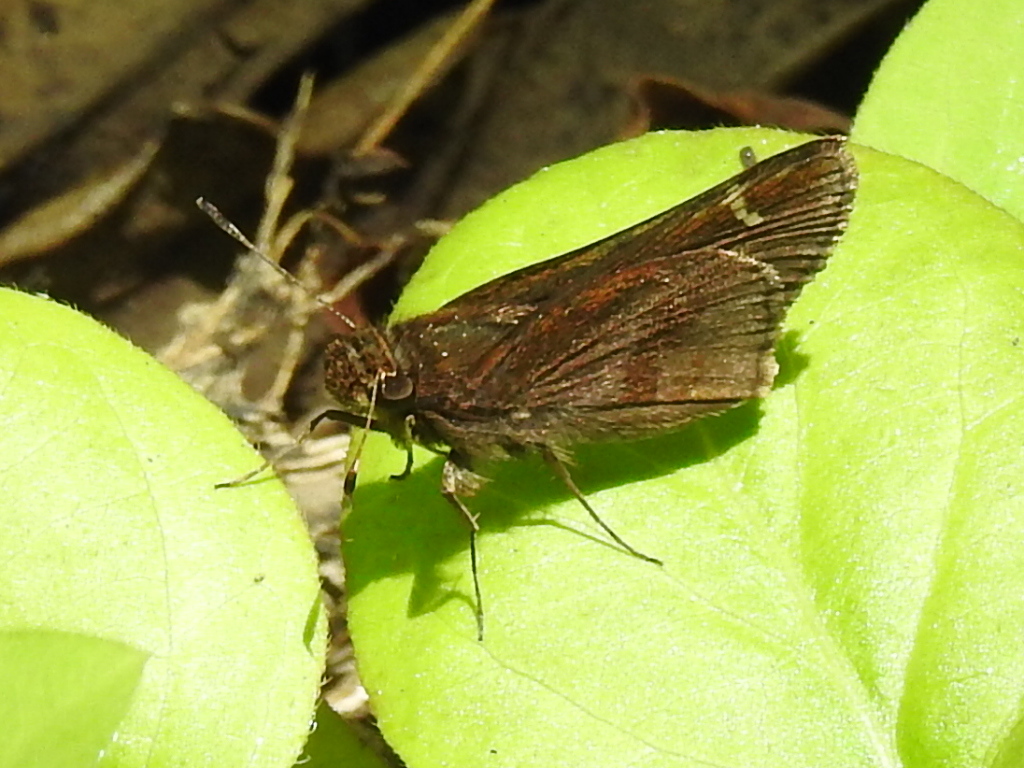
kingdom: Animalia
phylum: Arthropoda
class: Insecta
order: Lepidoptera
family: Hesperiidae
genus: Lerema
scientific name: Lerema accius
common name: Clouded skipper
